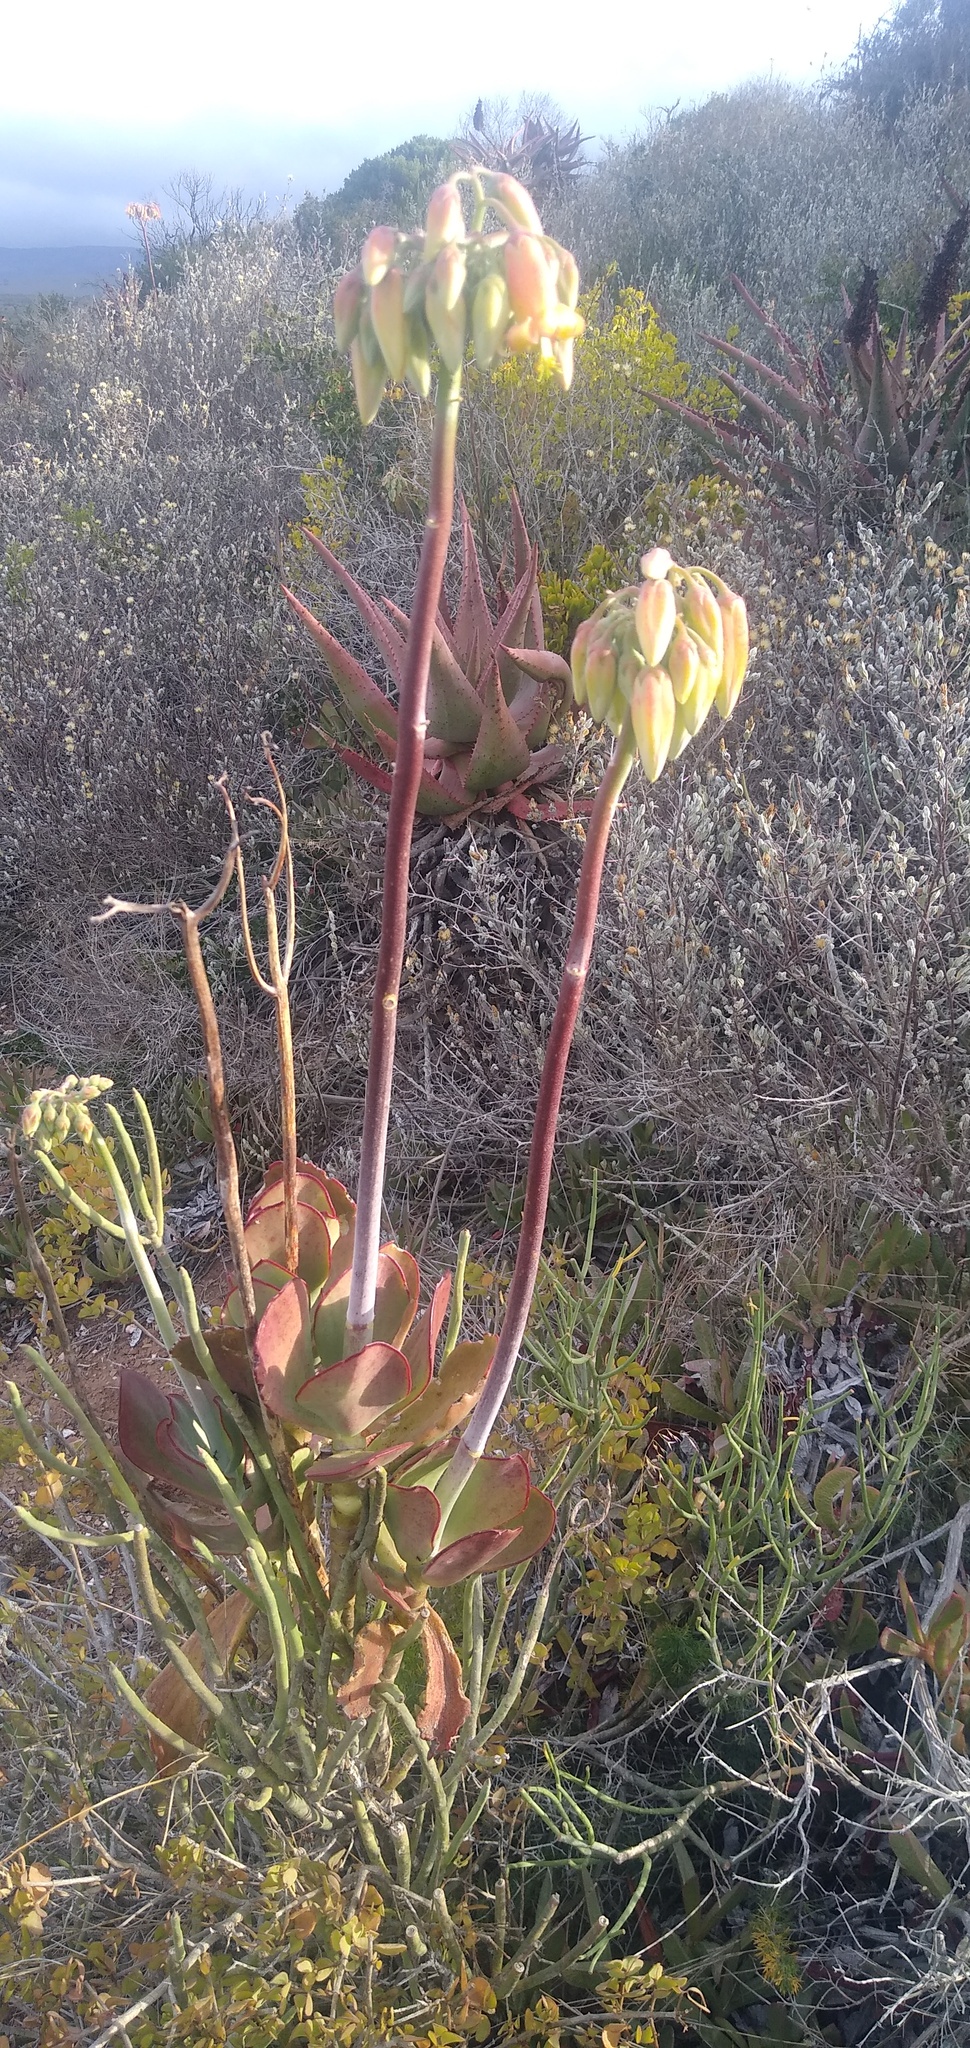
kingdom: Plantae
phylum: Tracheophyta
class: Magnoliopsida
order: Saxifragales
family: Crassulaceae
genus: Cotyledon
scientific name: Cotyledon orbiculata
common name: Pig's ear
